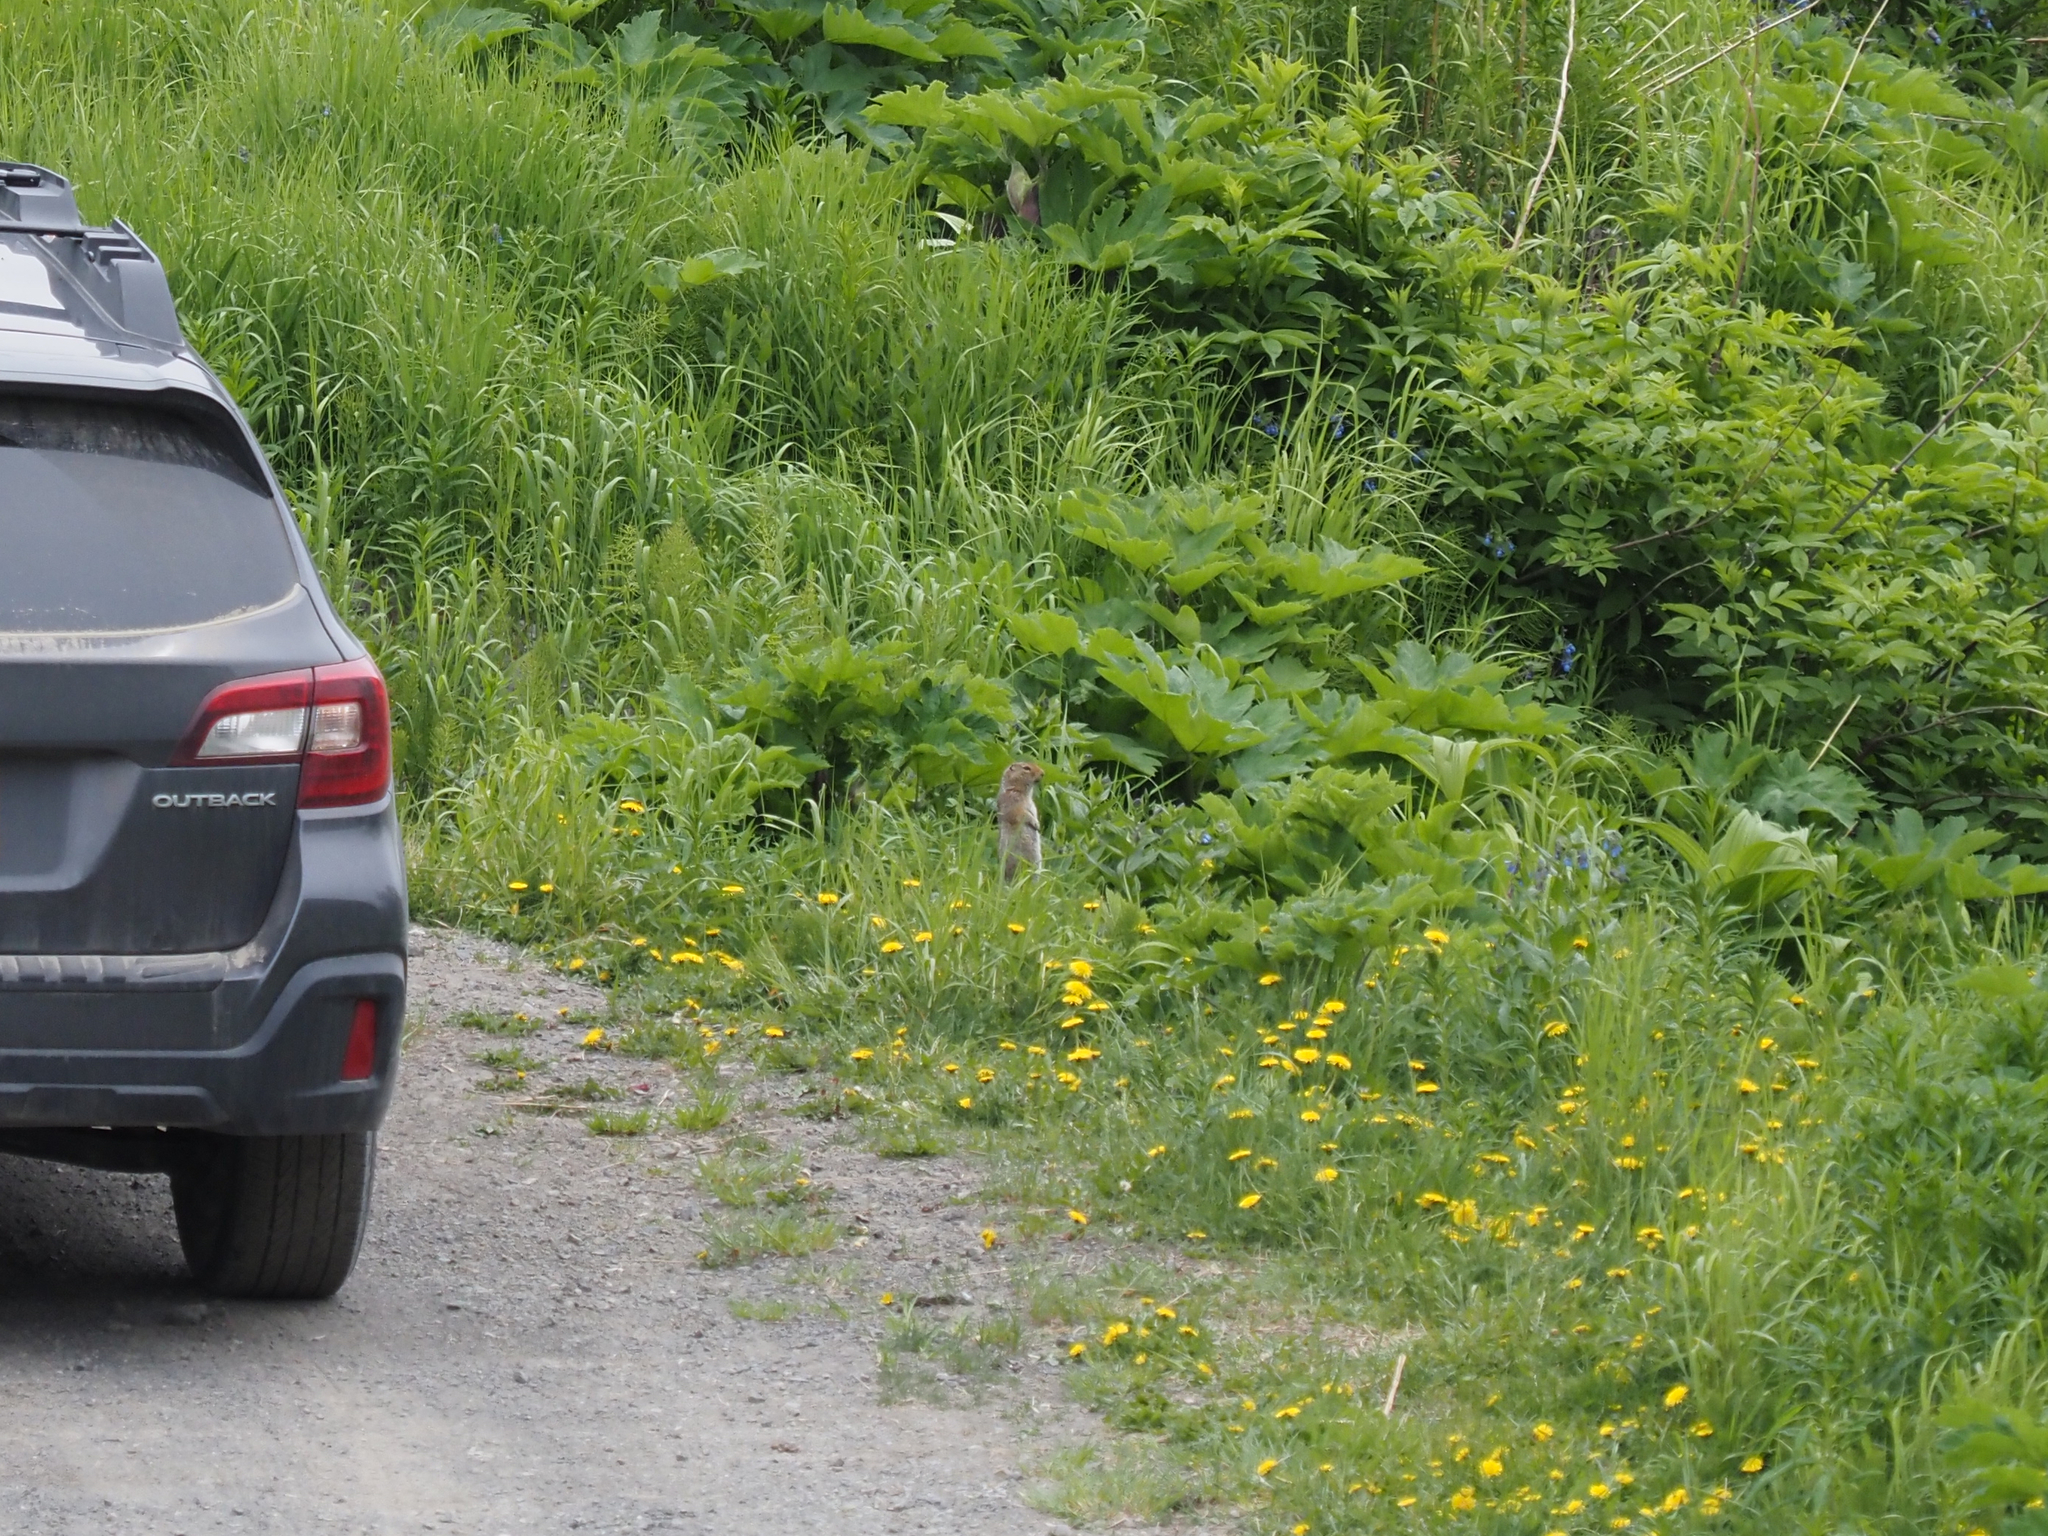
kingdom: Animalia
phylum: Chordata
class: Mammalia
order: Rodentia
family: Sciuridae
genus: Urocitellus
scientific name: Urocitellus parryii
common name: Arctic ground squirrel
